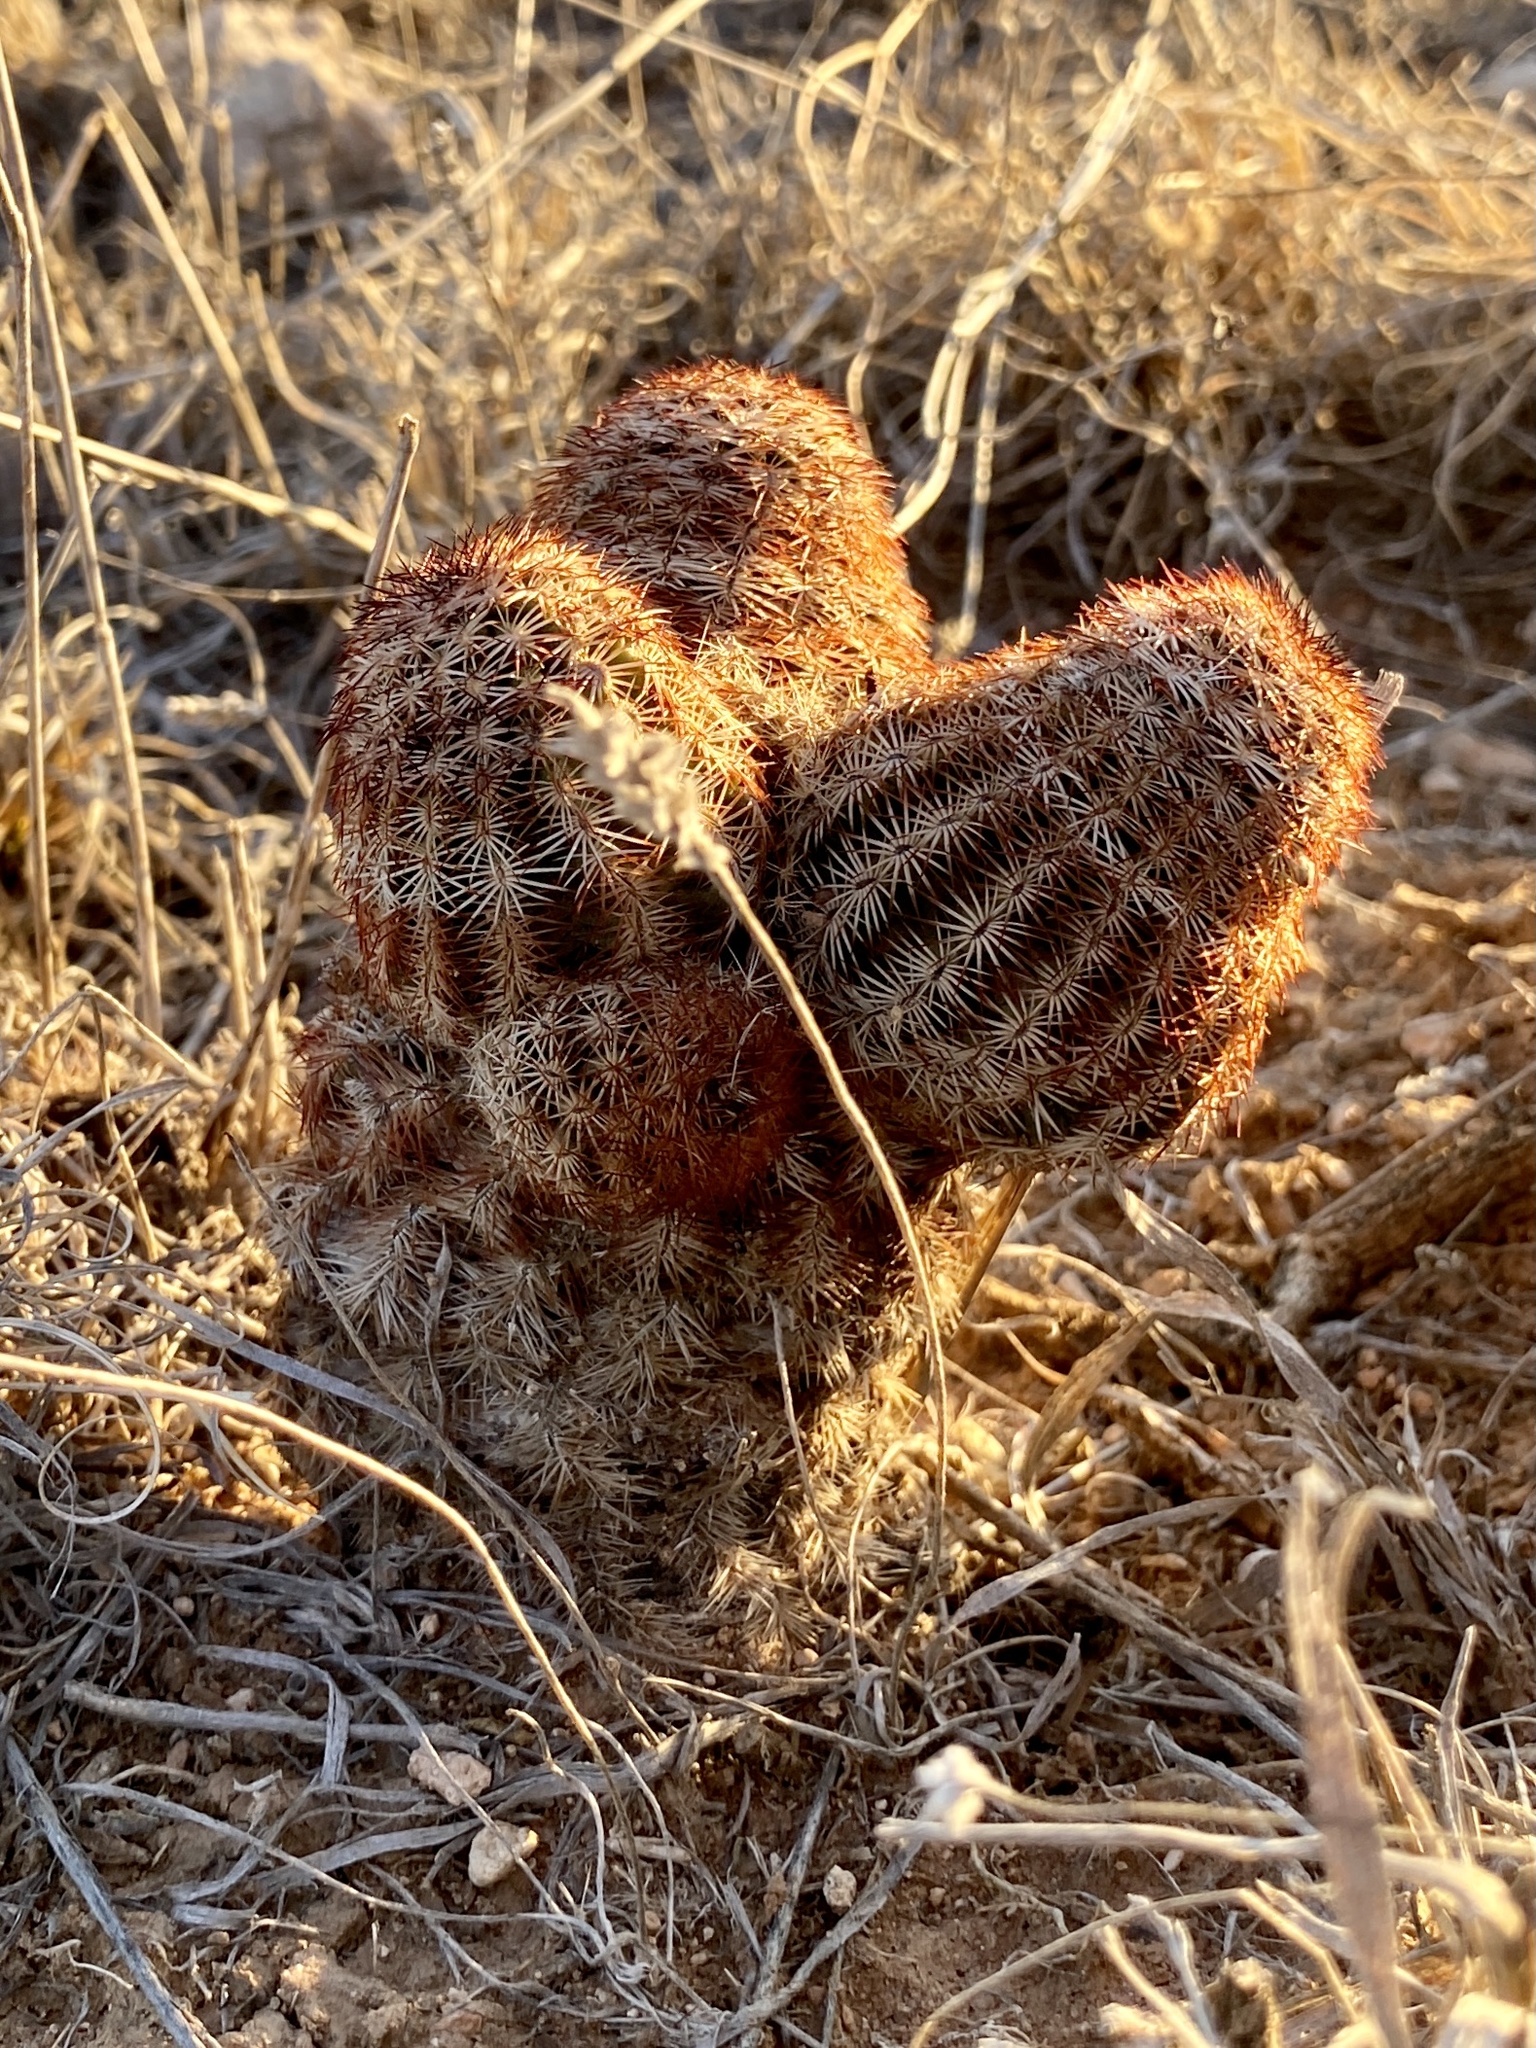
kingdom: Plantae
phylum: Tracheophyta
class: Magnoliopsida
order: Caryophyllales
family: Cactaceae
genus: Echinocereus
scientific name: Echinocereus reichenbachii
